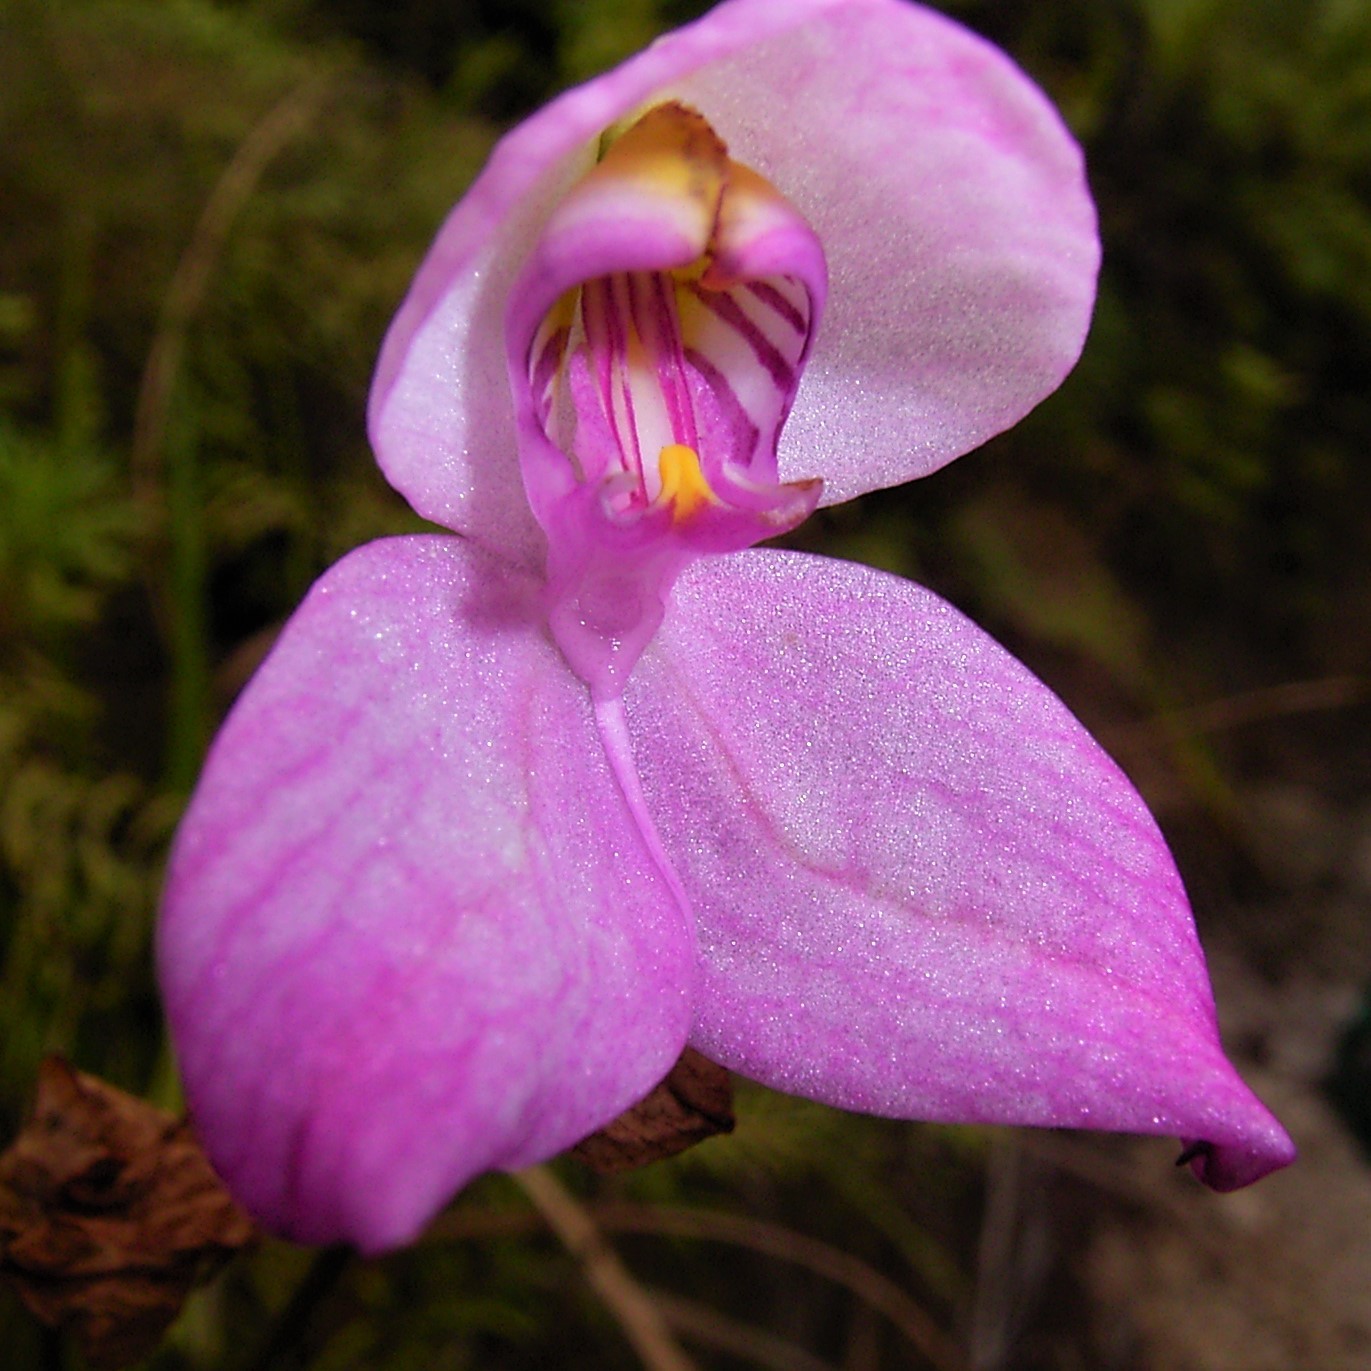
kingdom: Plantae
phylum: Tracheophyta
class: Liliopsida
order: Asparagales
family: Orchidaceae
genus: Disa
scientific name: Disa racemosa
